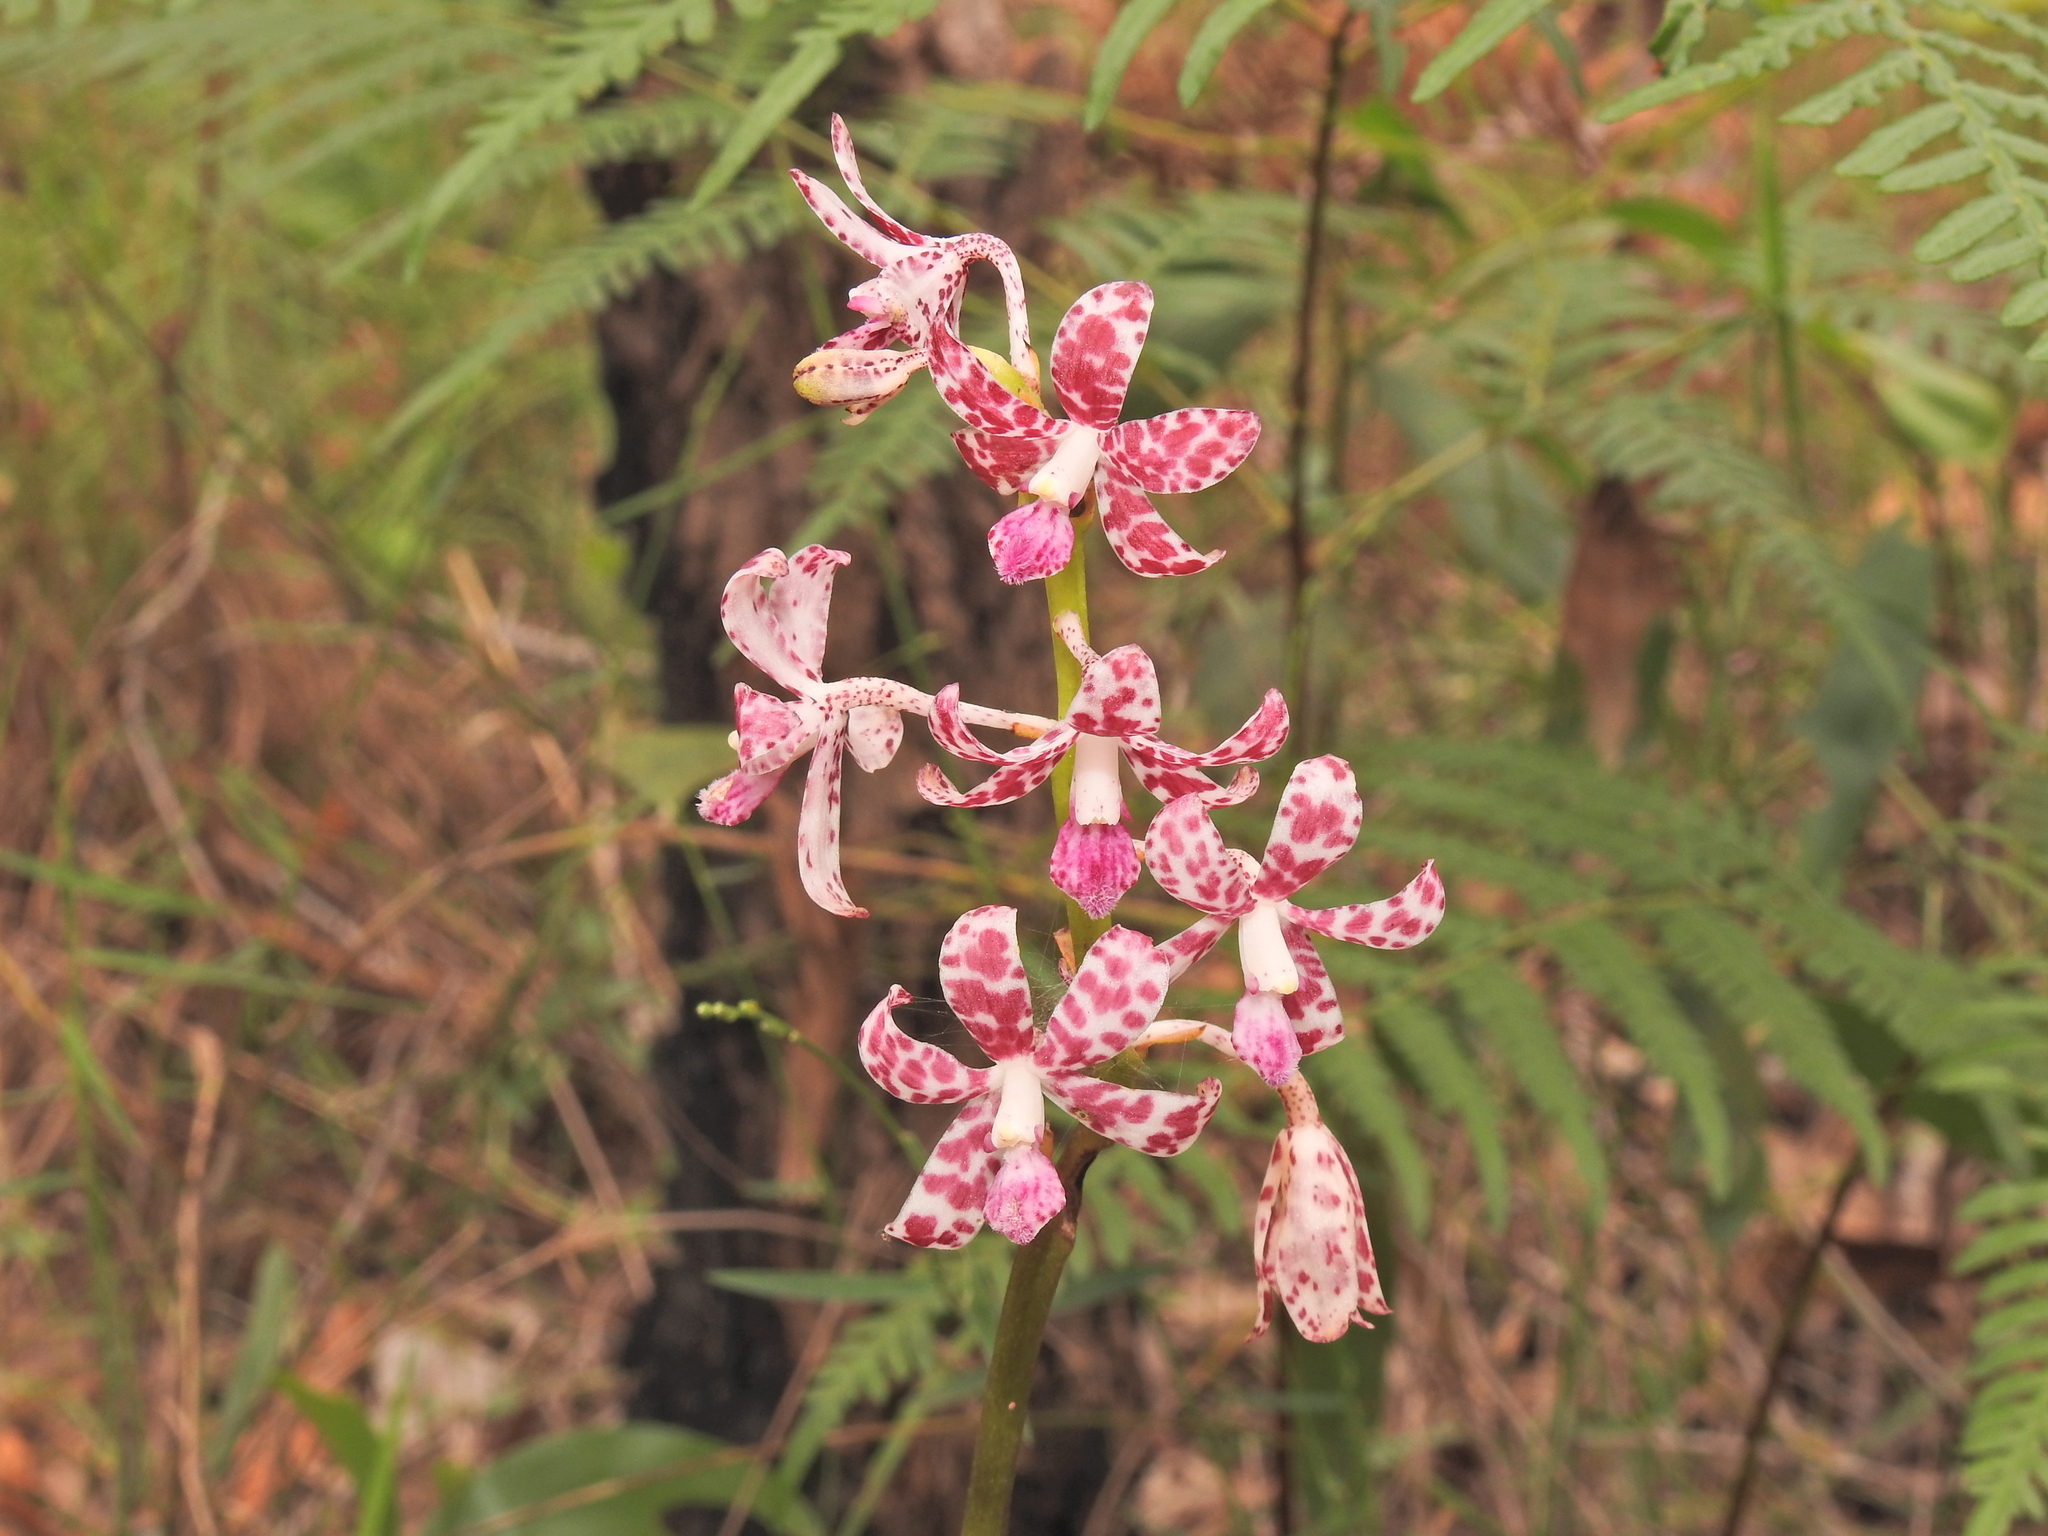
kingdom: Plantae
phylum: Tracheophyta
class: Liliopsida
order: Asparagales
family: Orchidaceae
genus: Dipodium
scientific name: Dipodium variegatum
